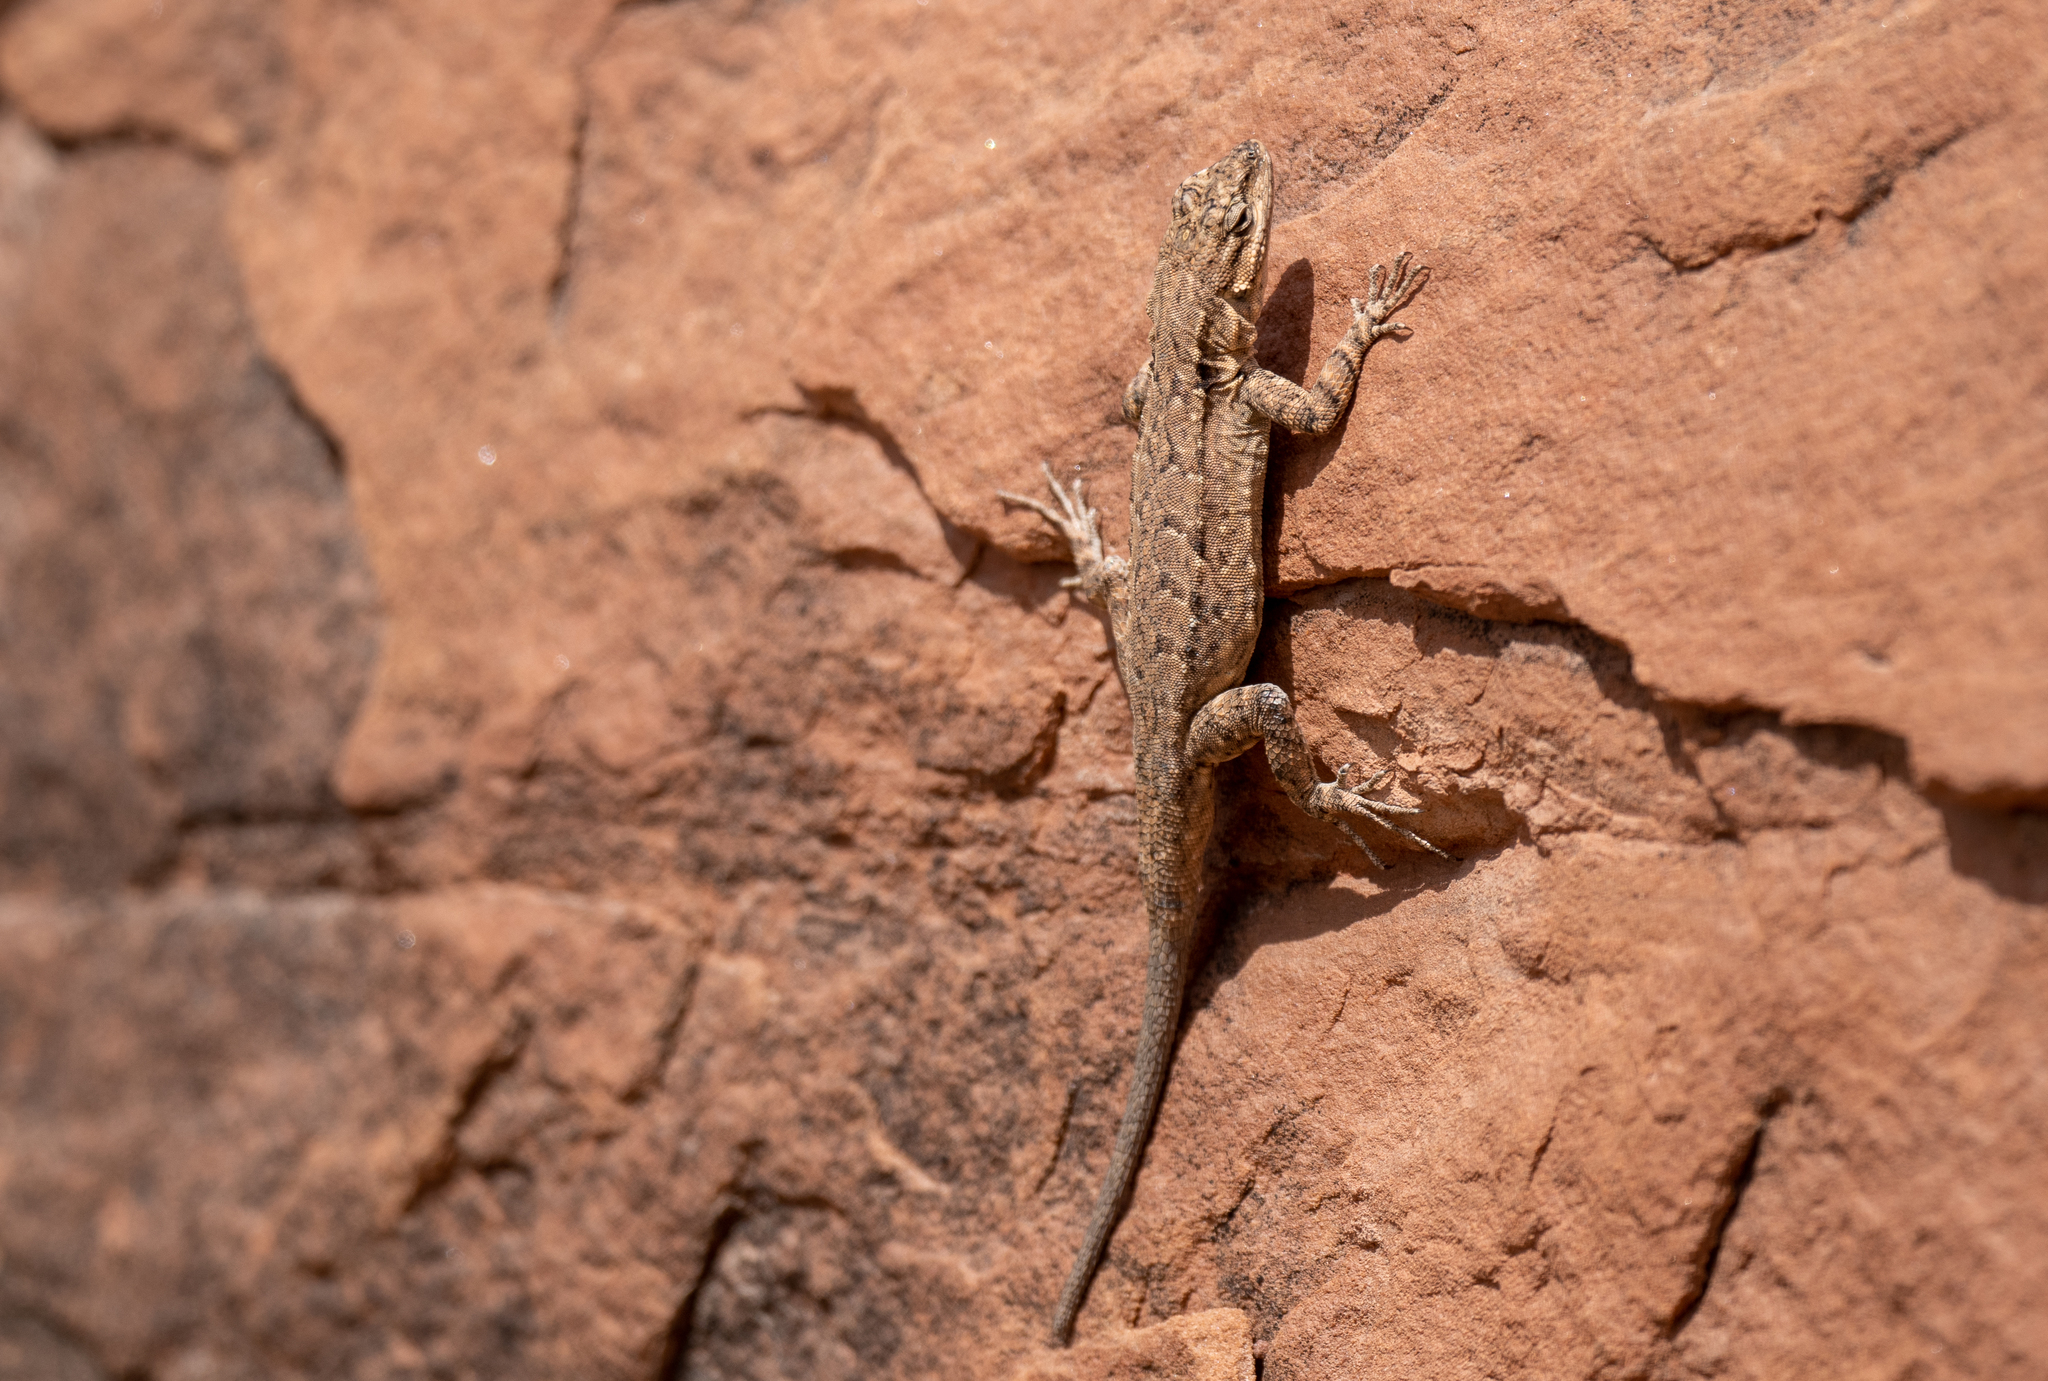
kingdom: Animalia
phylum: Chordata
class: Squamata
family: Phrynosomatidae
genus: Urosaurus
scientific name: Urosaurus ornatus
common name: Ornate tree lizard
